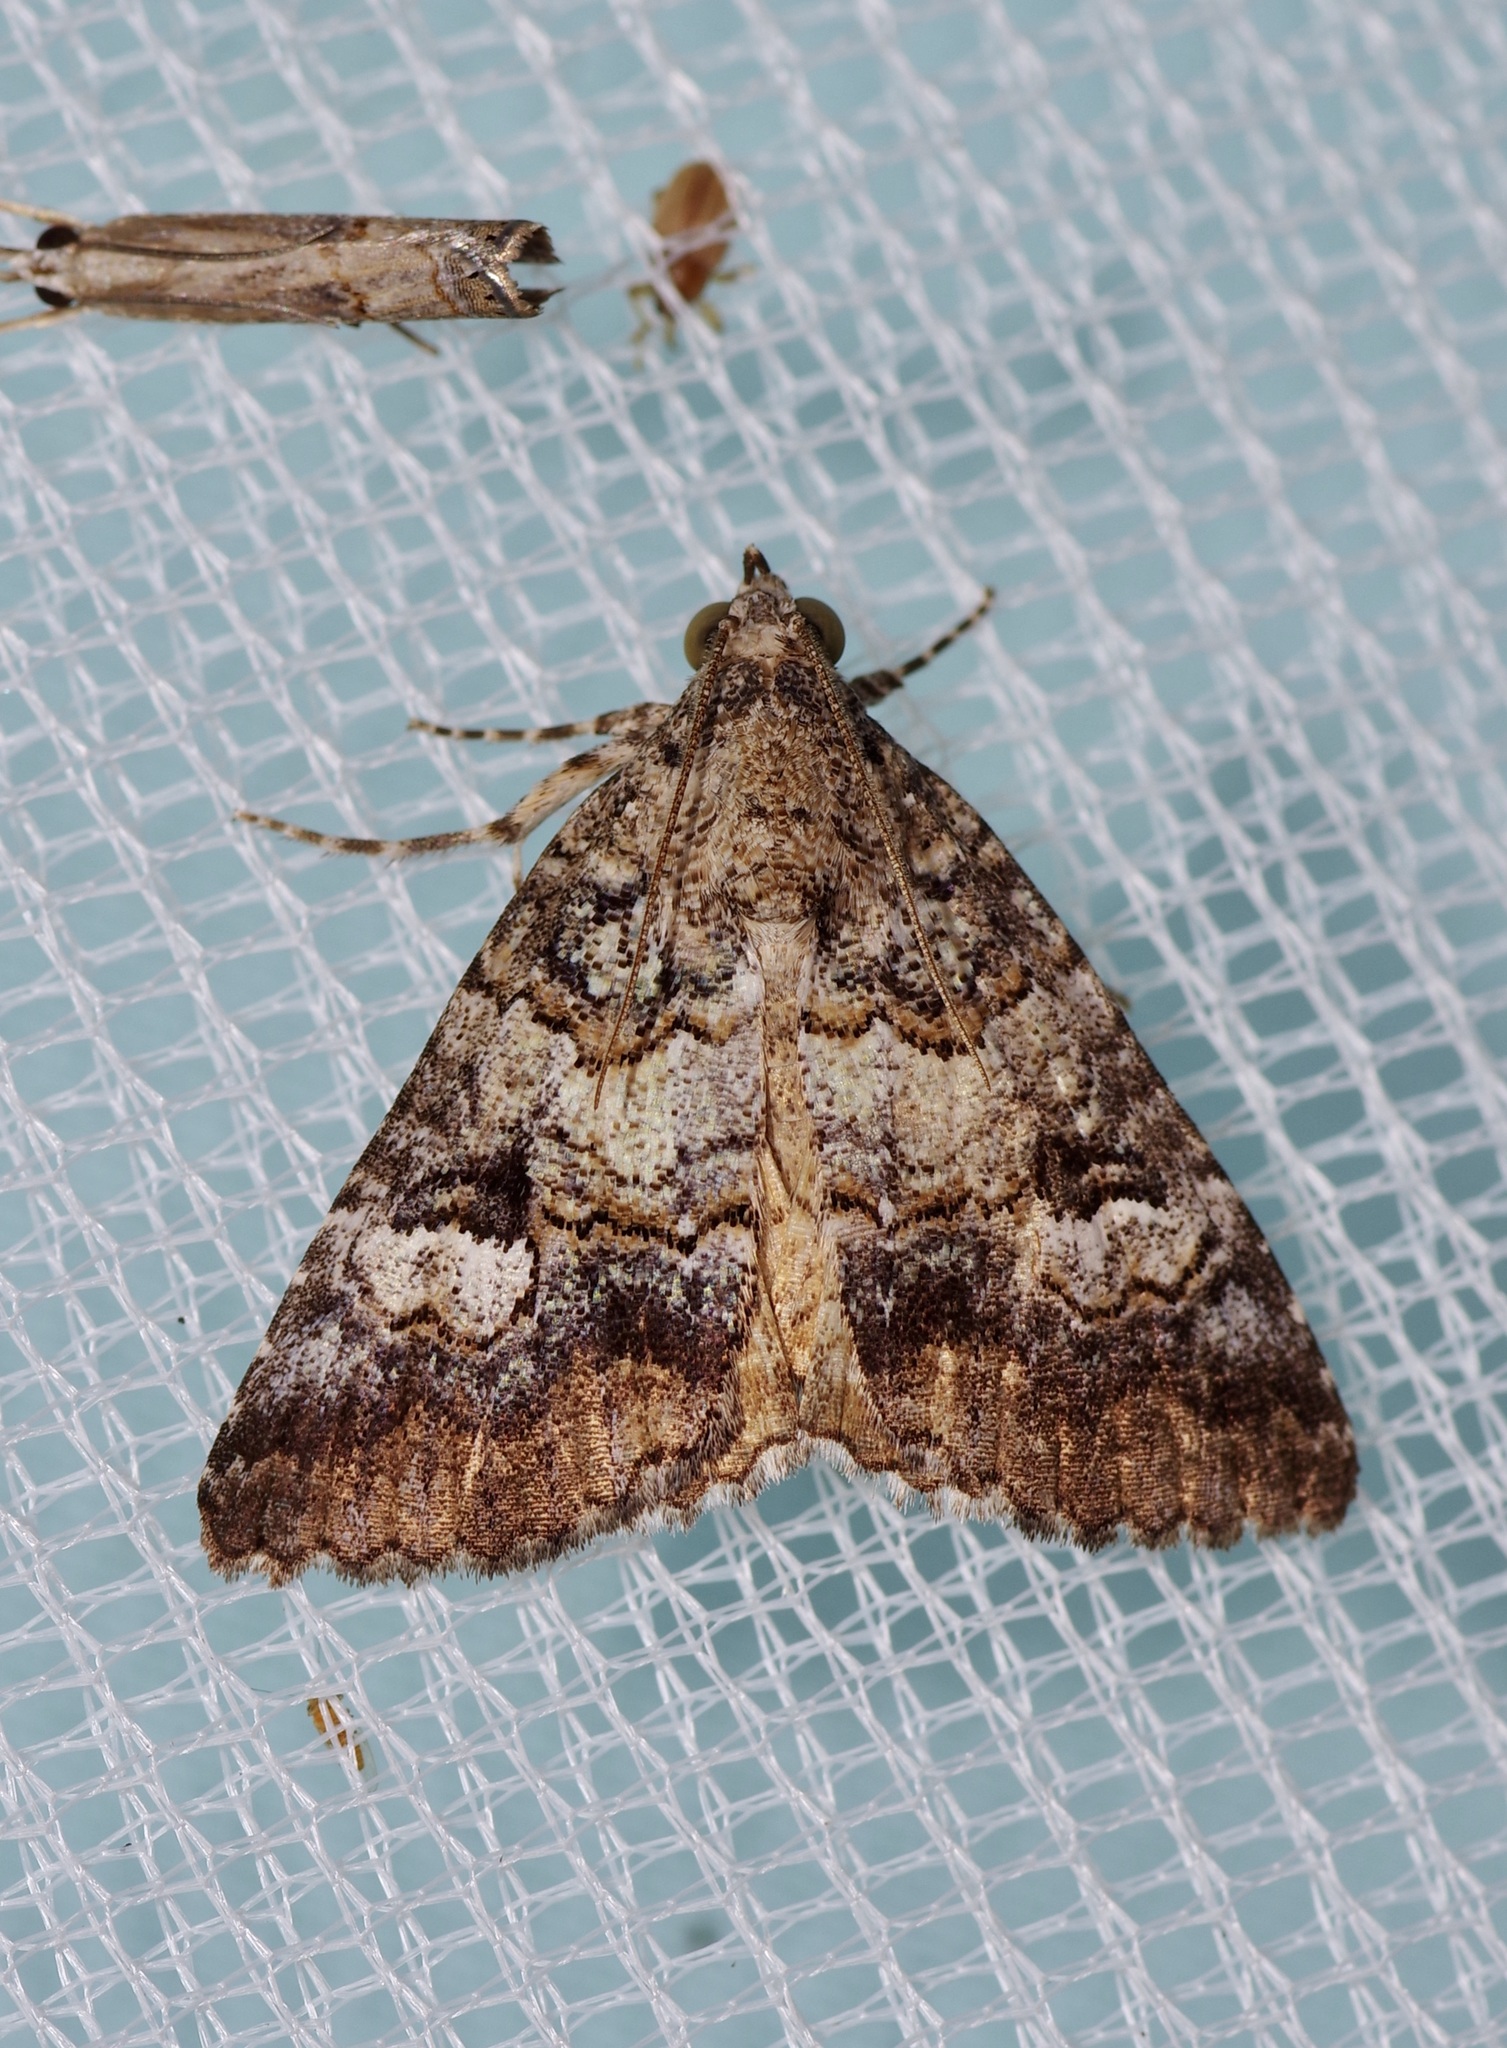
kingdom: Animalia
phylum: Arthropoda
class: Insecta
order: Lepidoptera
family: Erebidae
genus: Eubolina
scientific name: Eubolina impartialis
